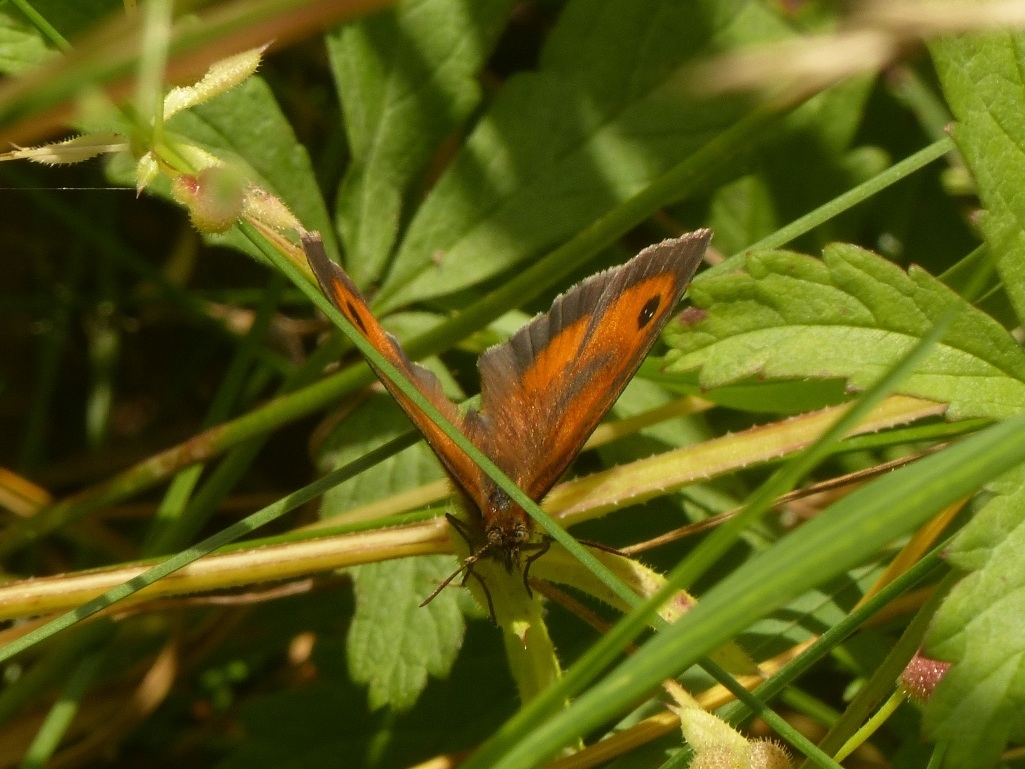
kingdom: Animalia
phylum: Arthropoda
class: Insecta
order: Lepidoptera
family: Nymphalidae
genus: Pyronia
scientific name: Pyronia tithonus
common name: Gatekeeper
